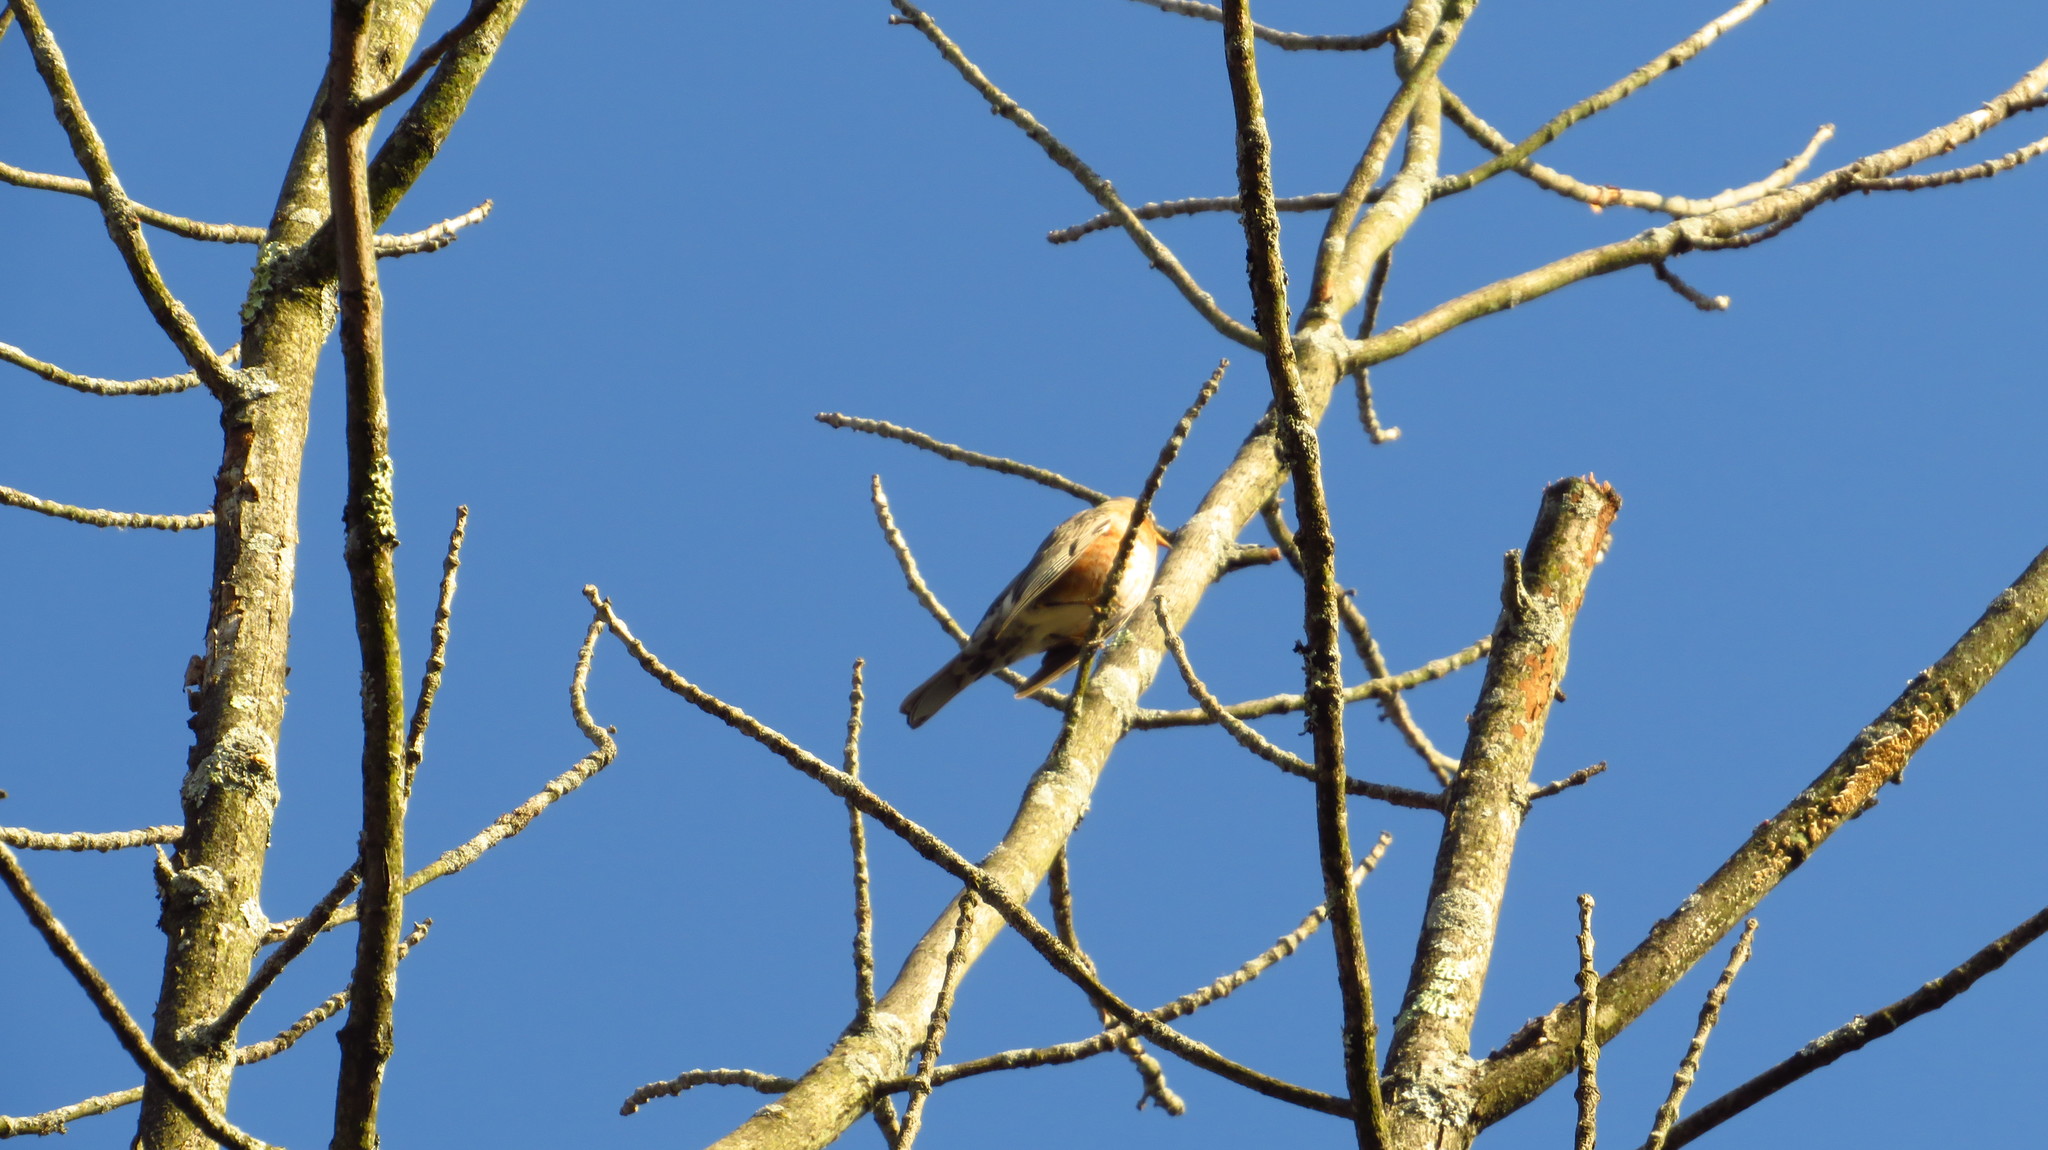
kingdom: Animalia
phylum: Chordata
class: Aves
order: Passeriformes
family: Turdidae
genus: Turdus
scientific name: Turdus migratorius
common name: American robin
